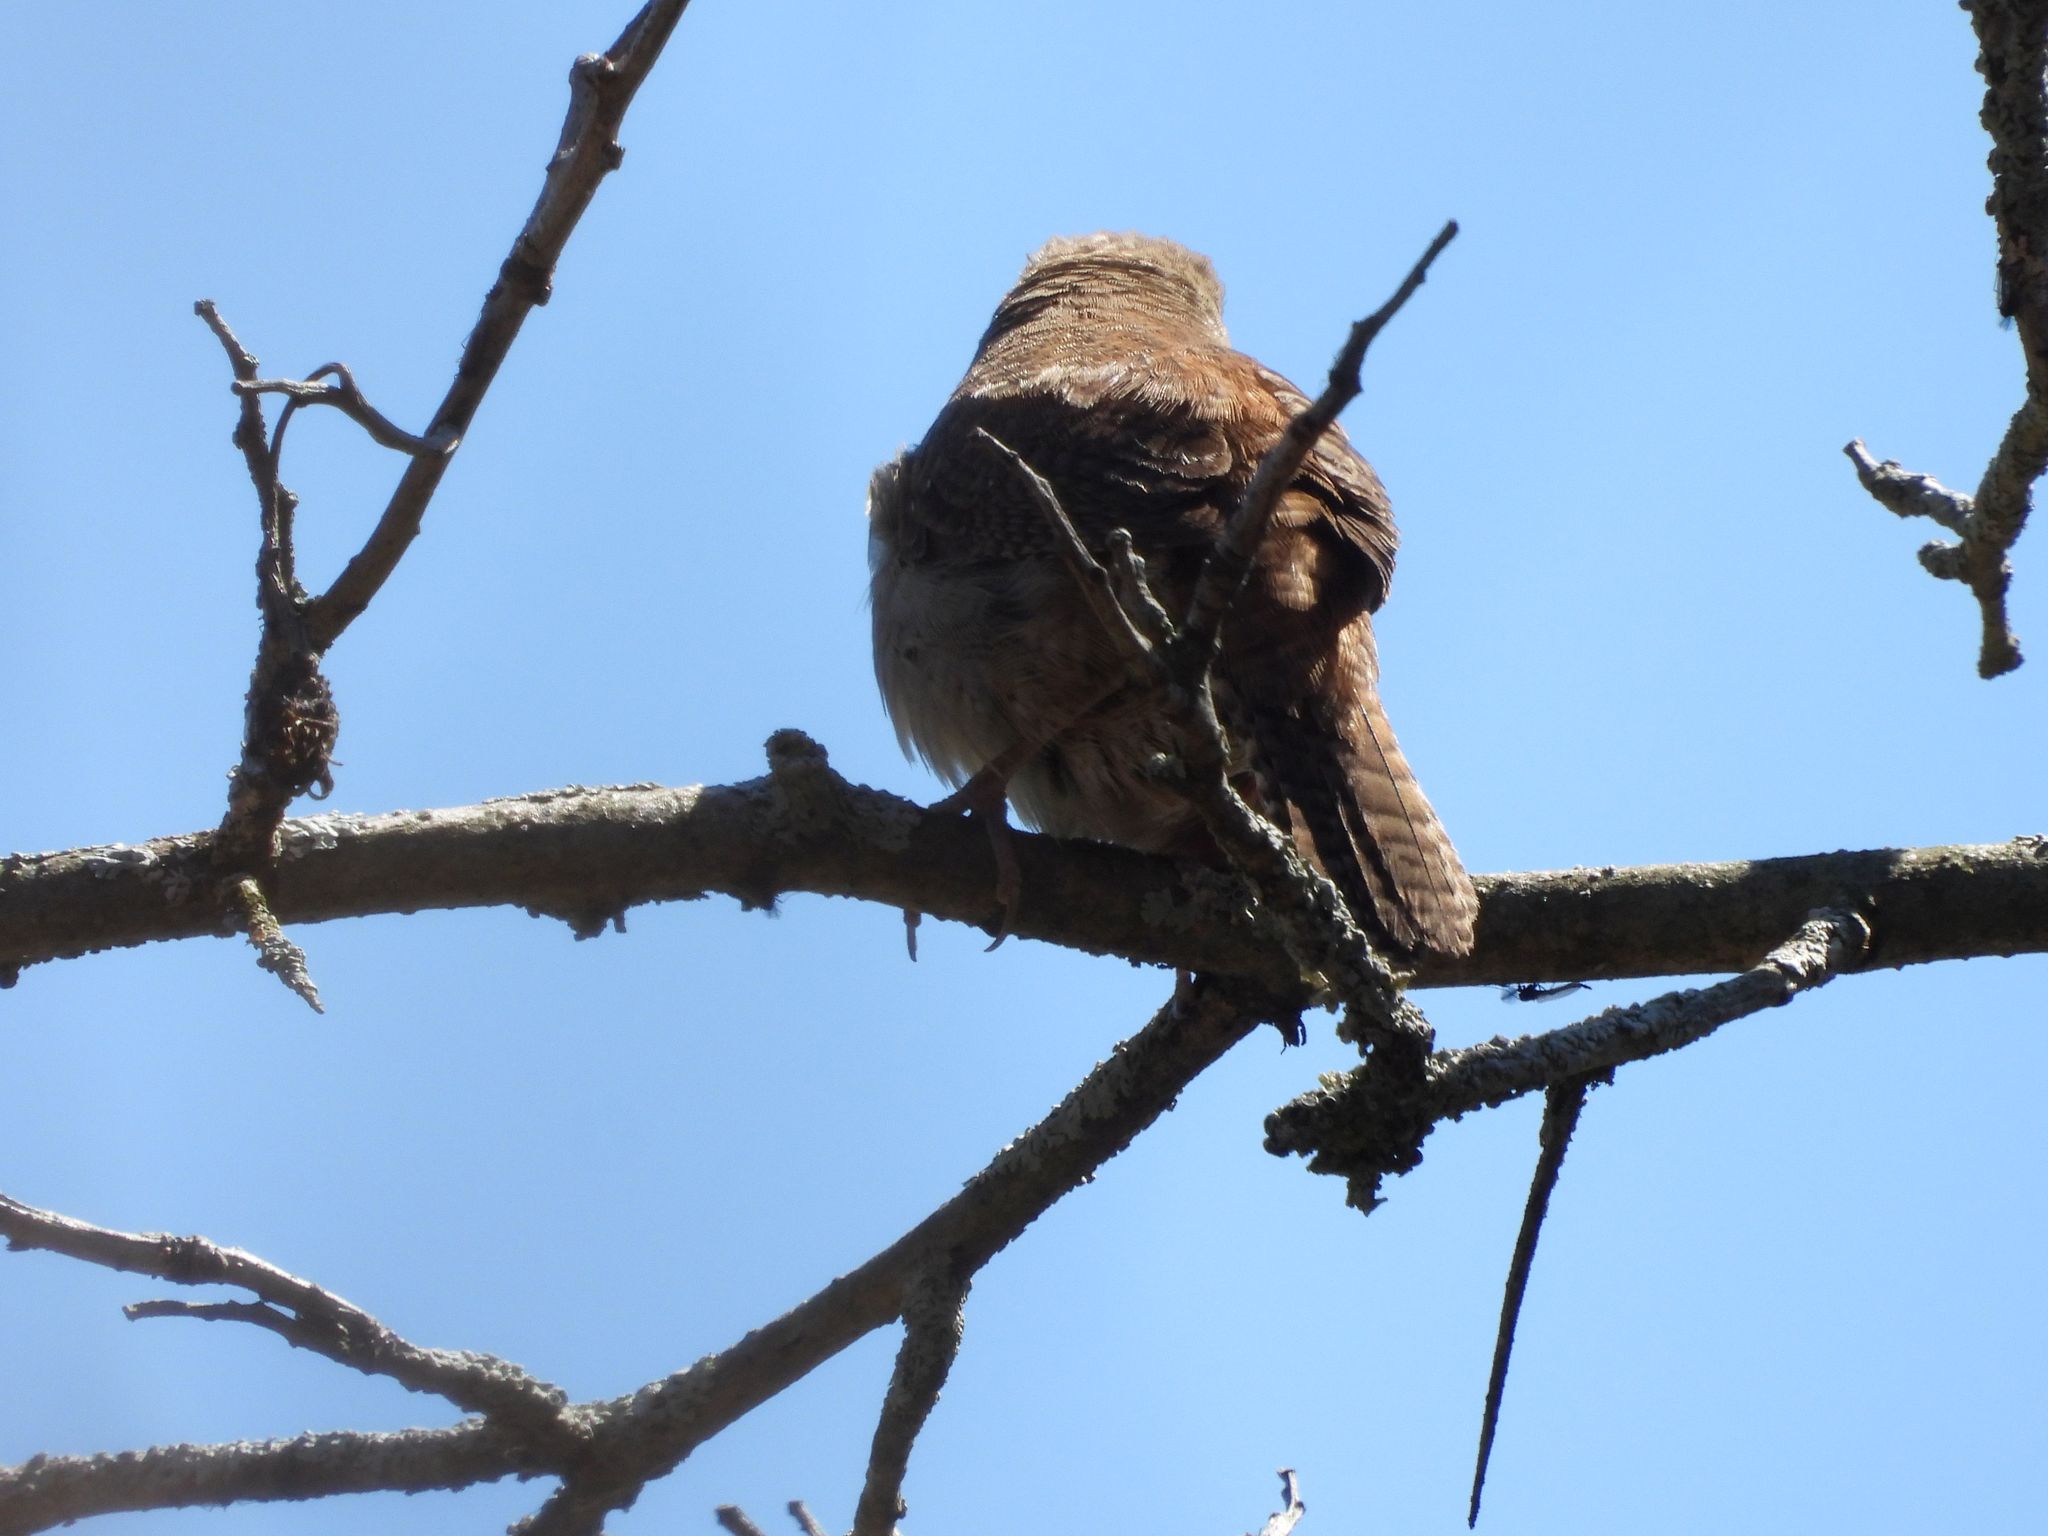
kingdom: Animalia
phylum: Chordata
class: Aves
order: Passeriformes
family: Troglodytidae
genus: Troglodytes
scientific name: Troglodytes aedon
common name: House wren
